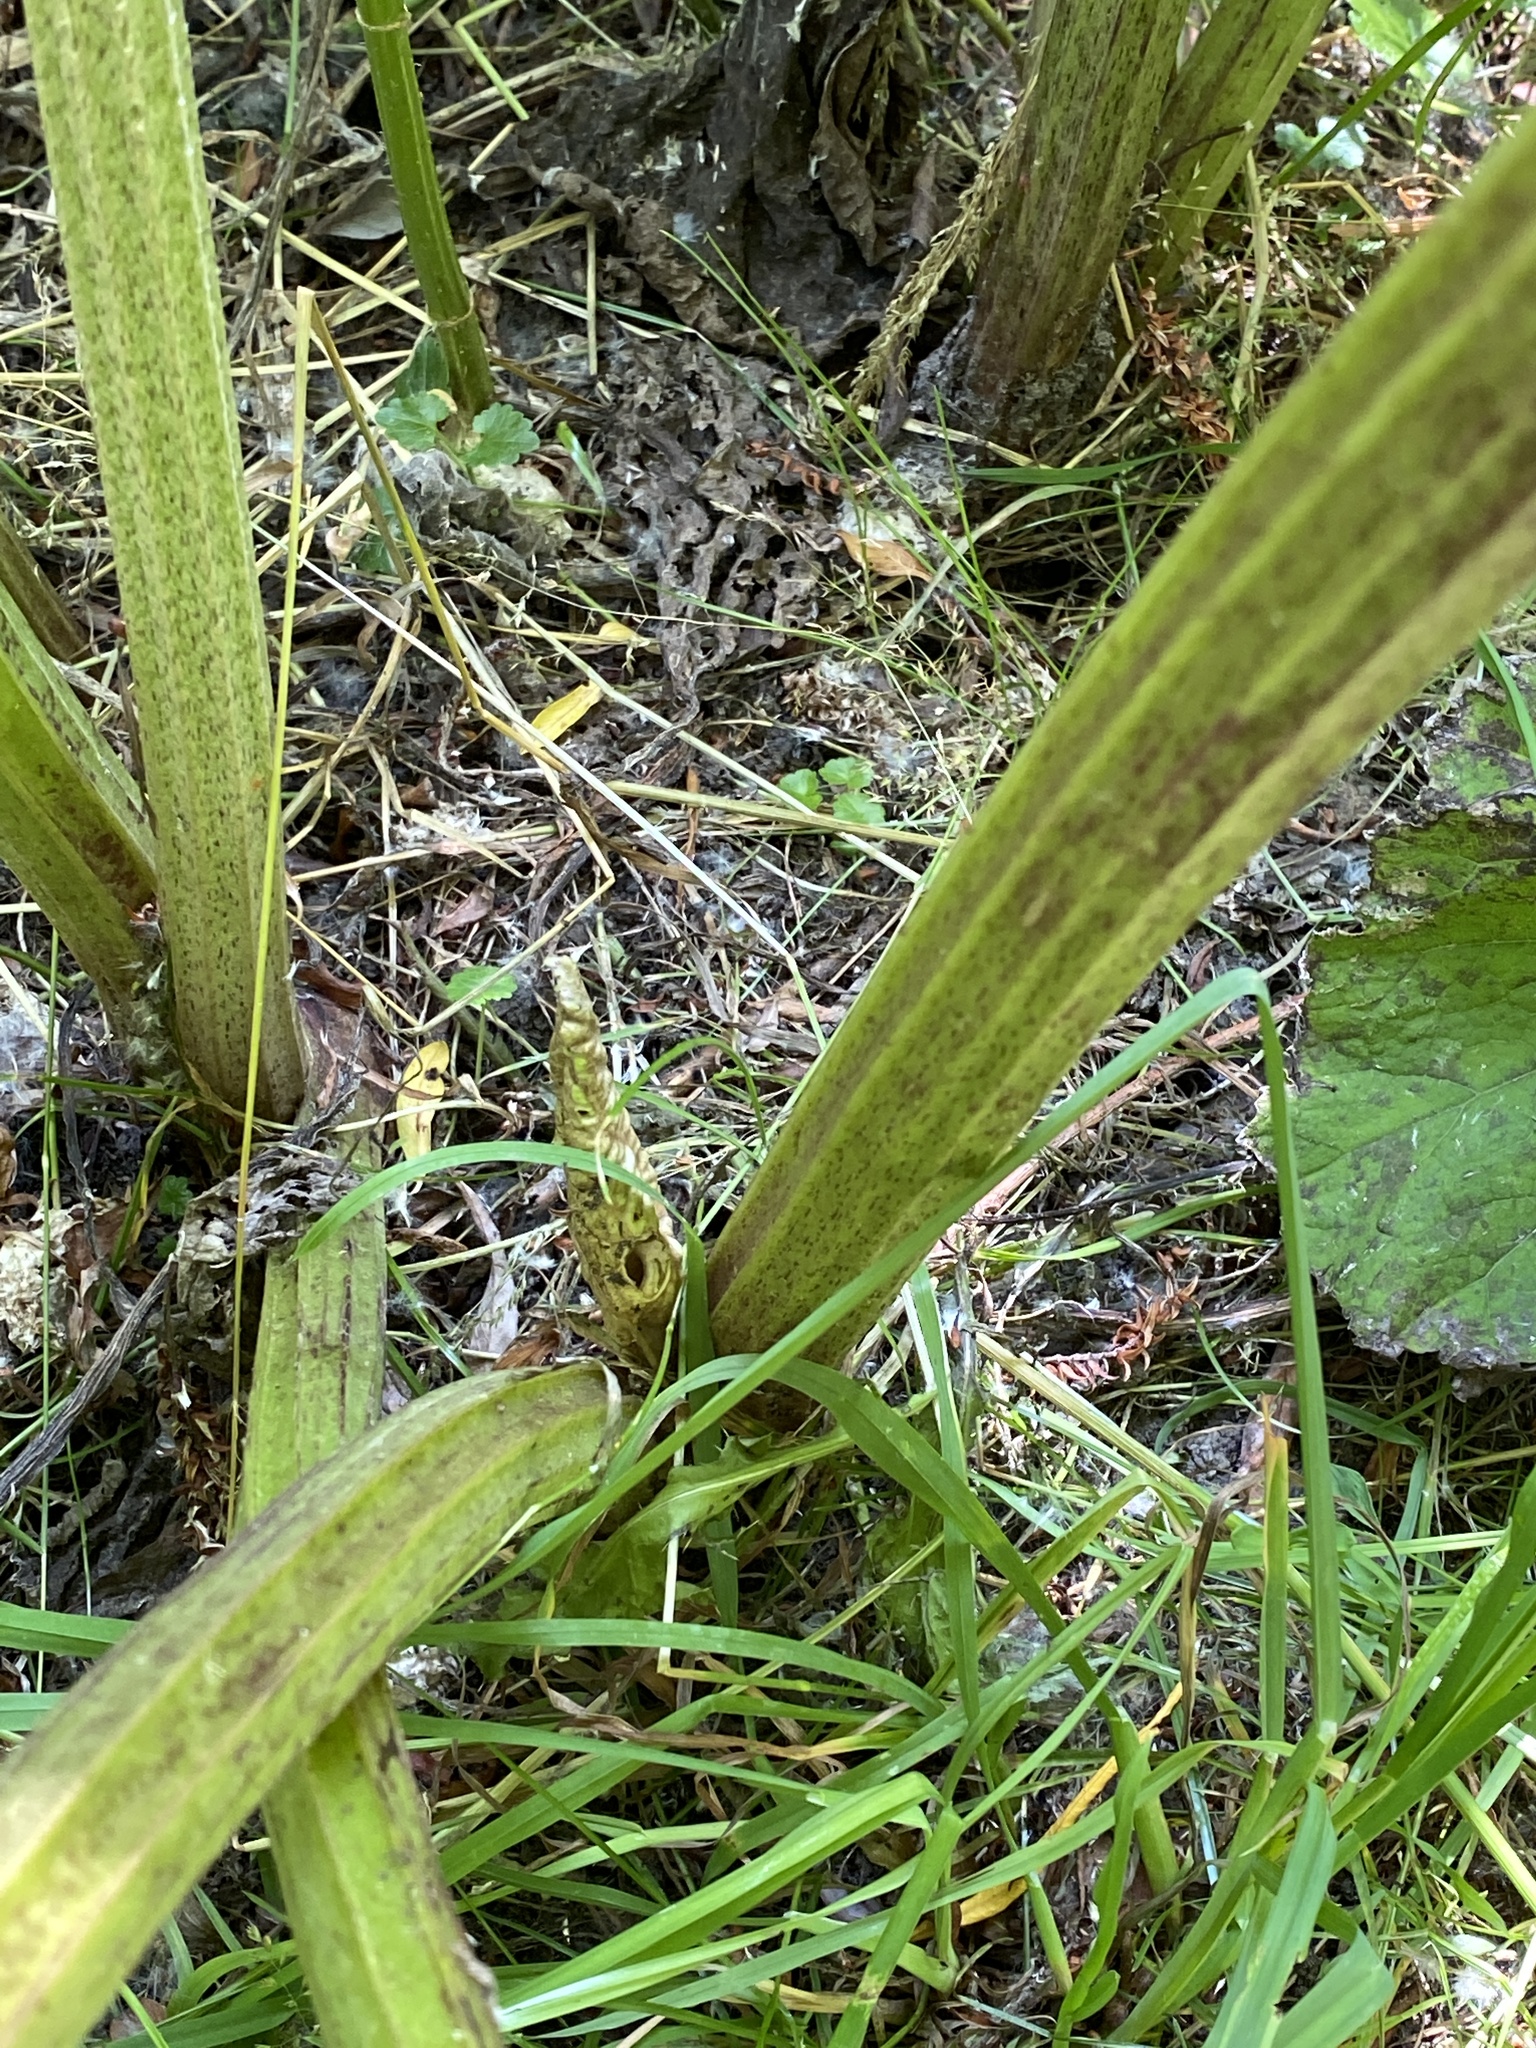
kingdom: Plantae
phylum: Tracheophyta
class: Magnoliopsida
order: Asterales
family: Asteraceae
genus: Petasites
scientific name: Petasites hybridus
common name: Butterbur
